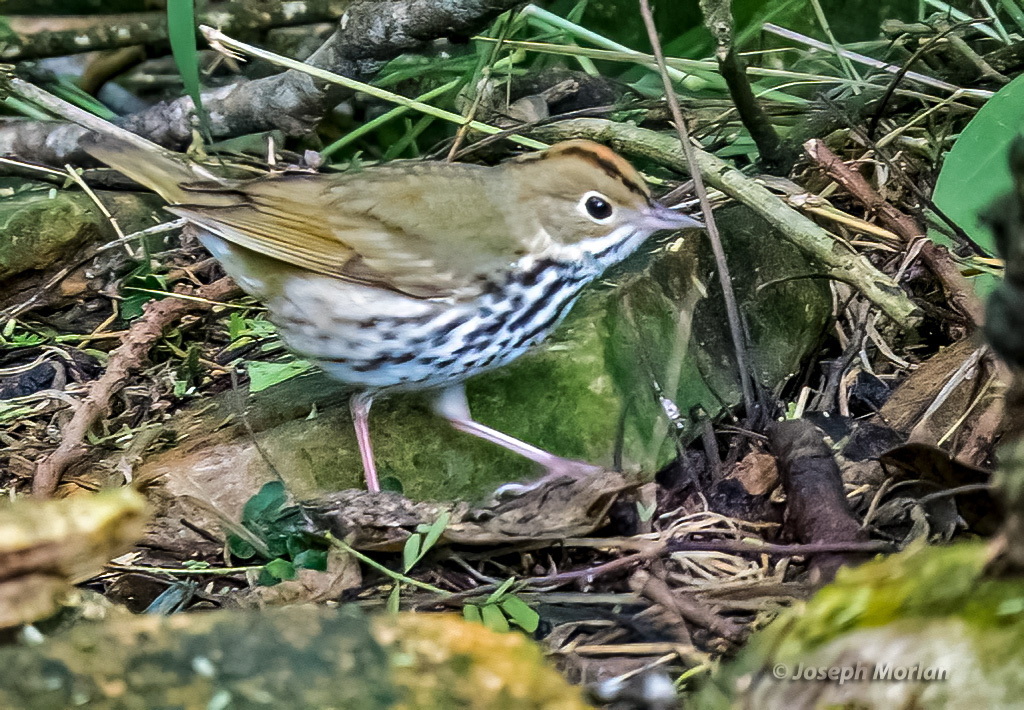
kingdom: Animalia
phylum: Chordata
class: Aves
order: Passeriformes
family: Parulidae
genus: Seiurus
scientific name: Seiurus aurocapilla
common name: Ovenbird
